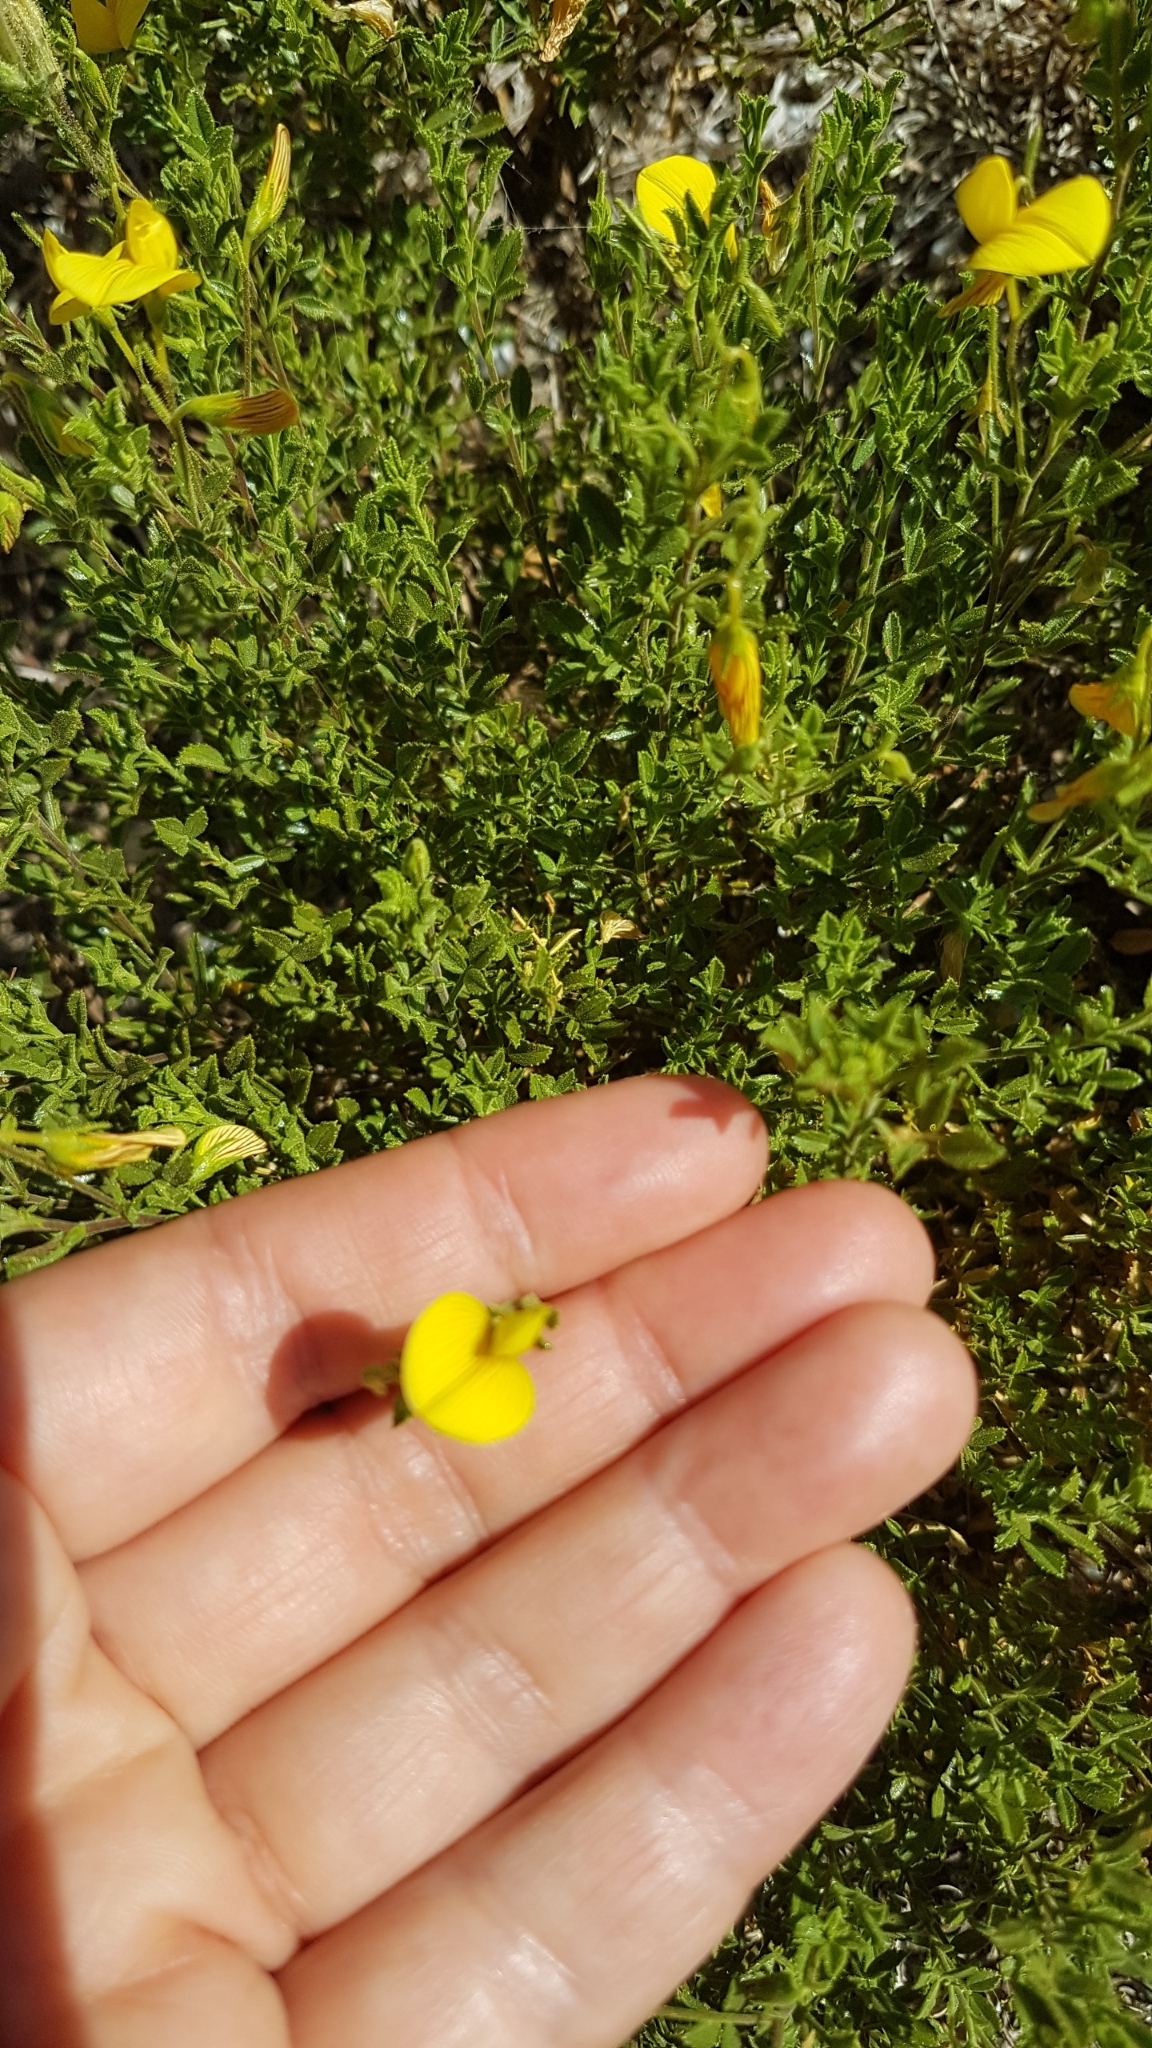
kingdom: Plantae
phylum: Tracheophyta
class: Magnoliopsida
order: Fabales
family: Fabaceae
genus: Ononis
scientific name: Ononis ramosissima
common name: Bush restharrow
